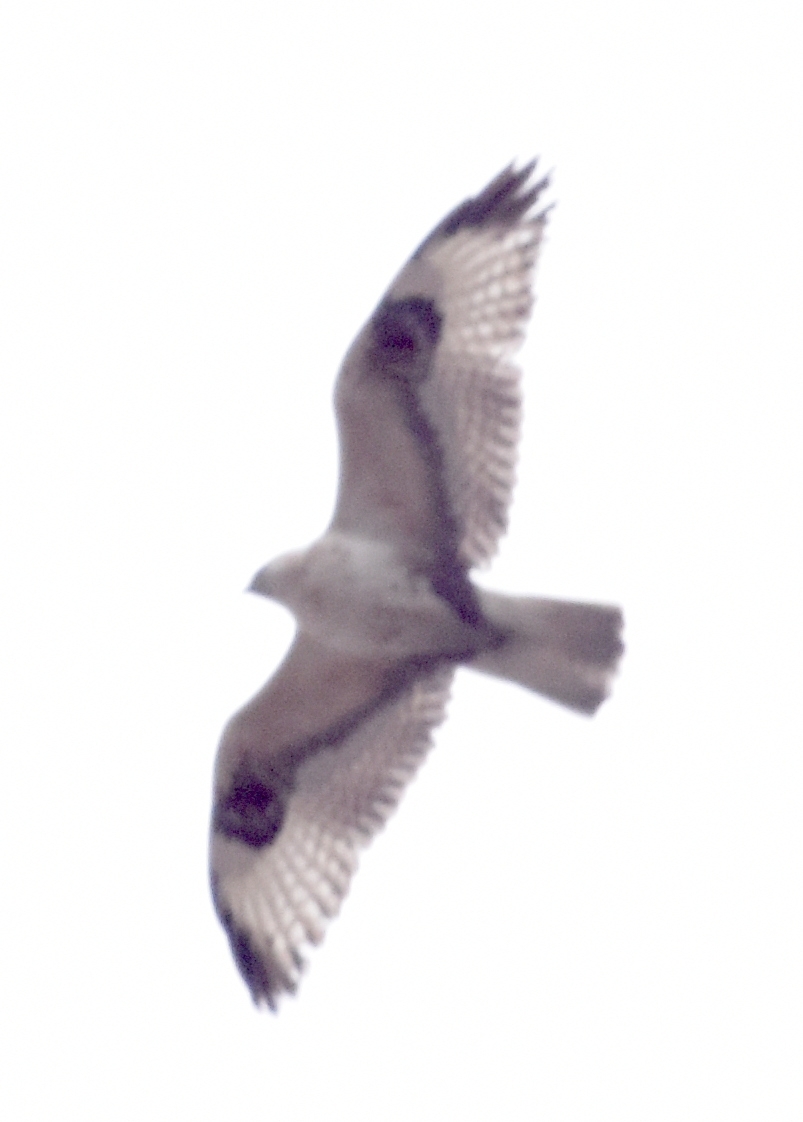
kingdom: Animalia
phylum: Chordata
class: Aves
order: Accipitriformes
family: Accipitridae
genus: Buteo
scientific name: Buteo hemilasius
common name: Upland buzzard
